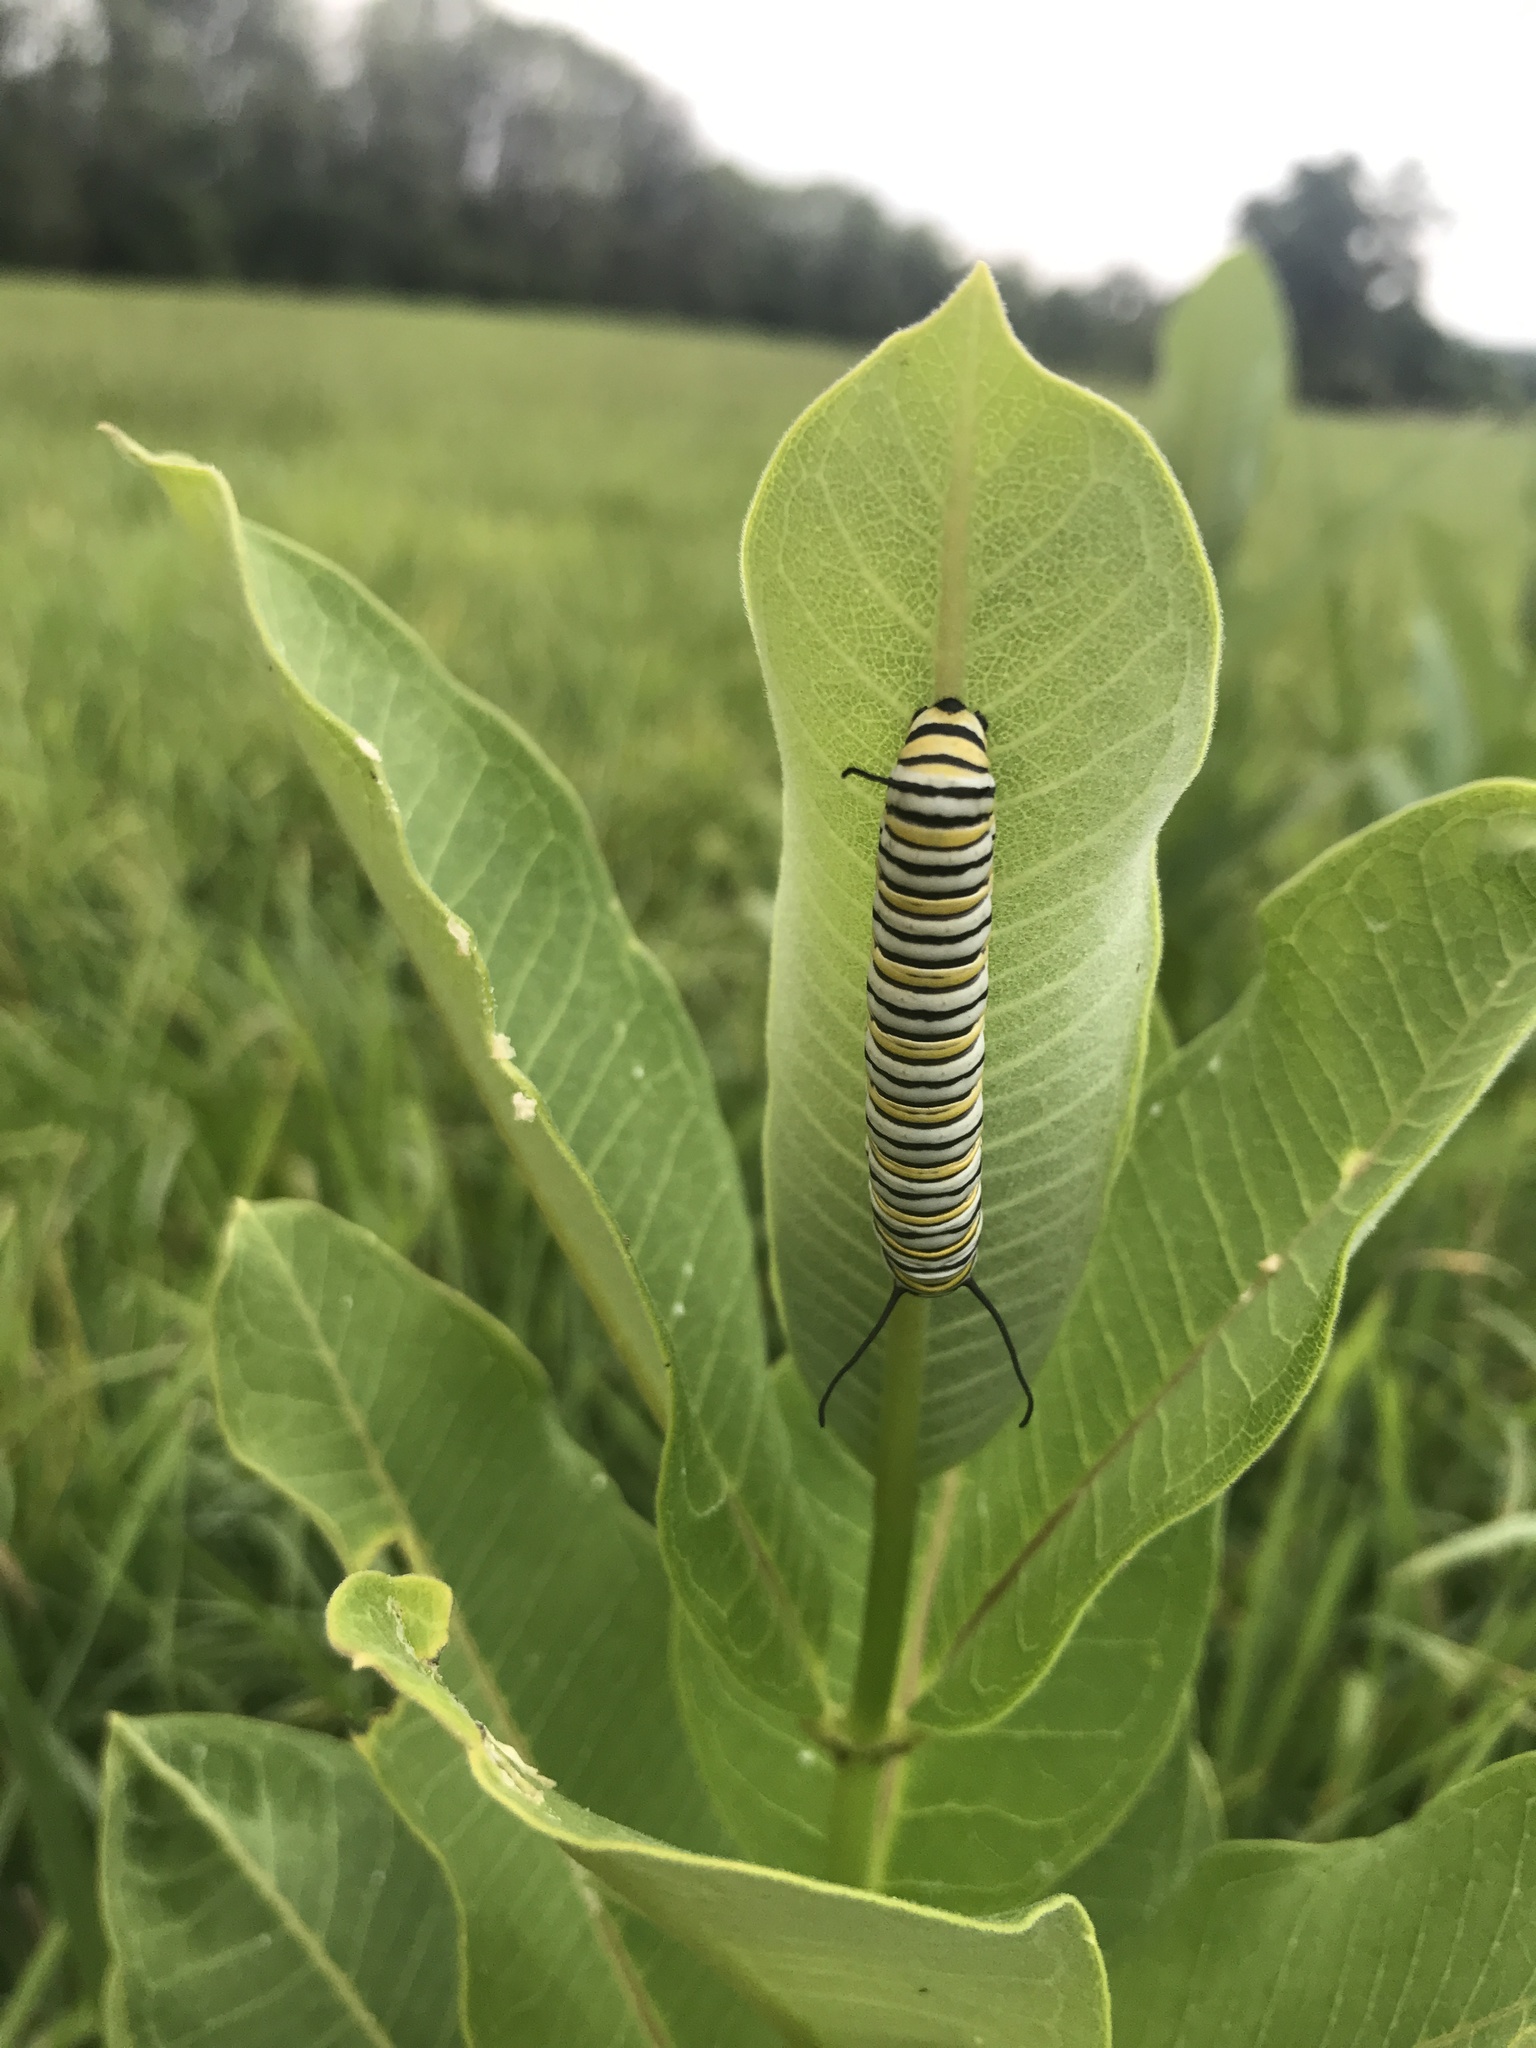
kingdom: Animalia
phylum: Arthropoda
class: Insecta
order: Lepidoptera
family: Nymphalidae
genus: Danaus
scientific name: Danaus plexippus
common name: Monarch
